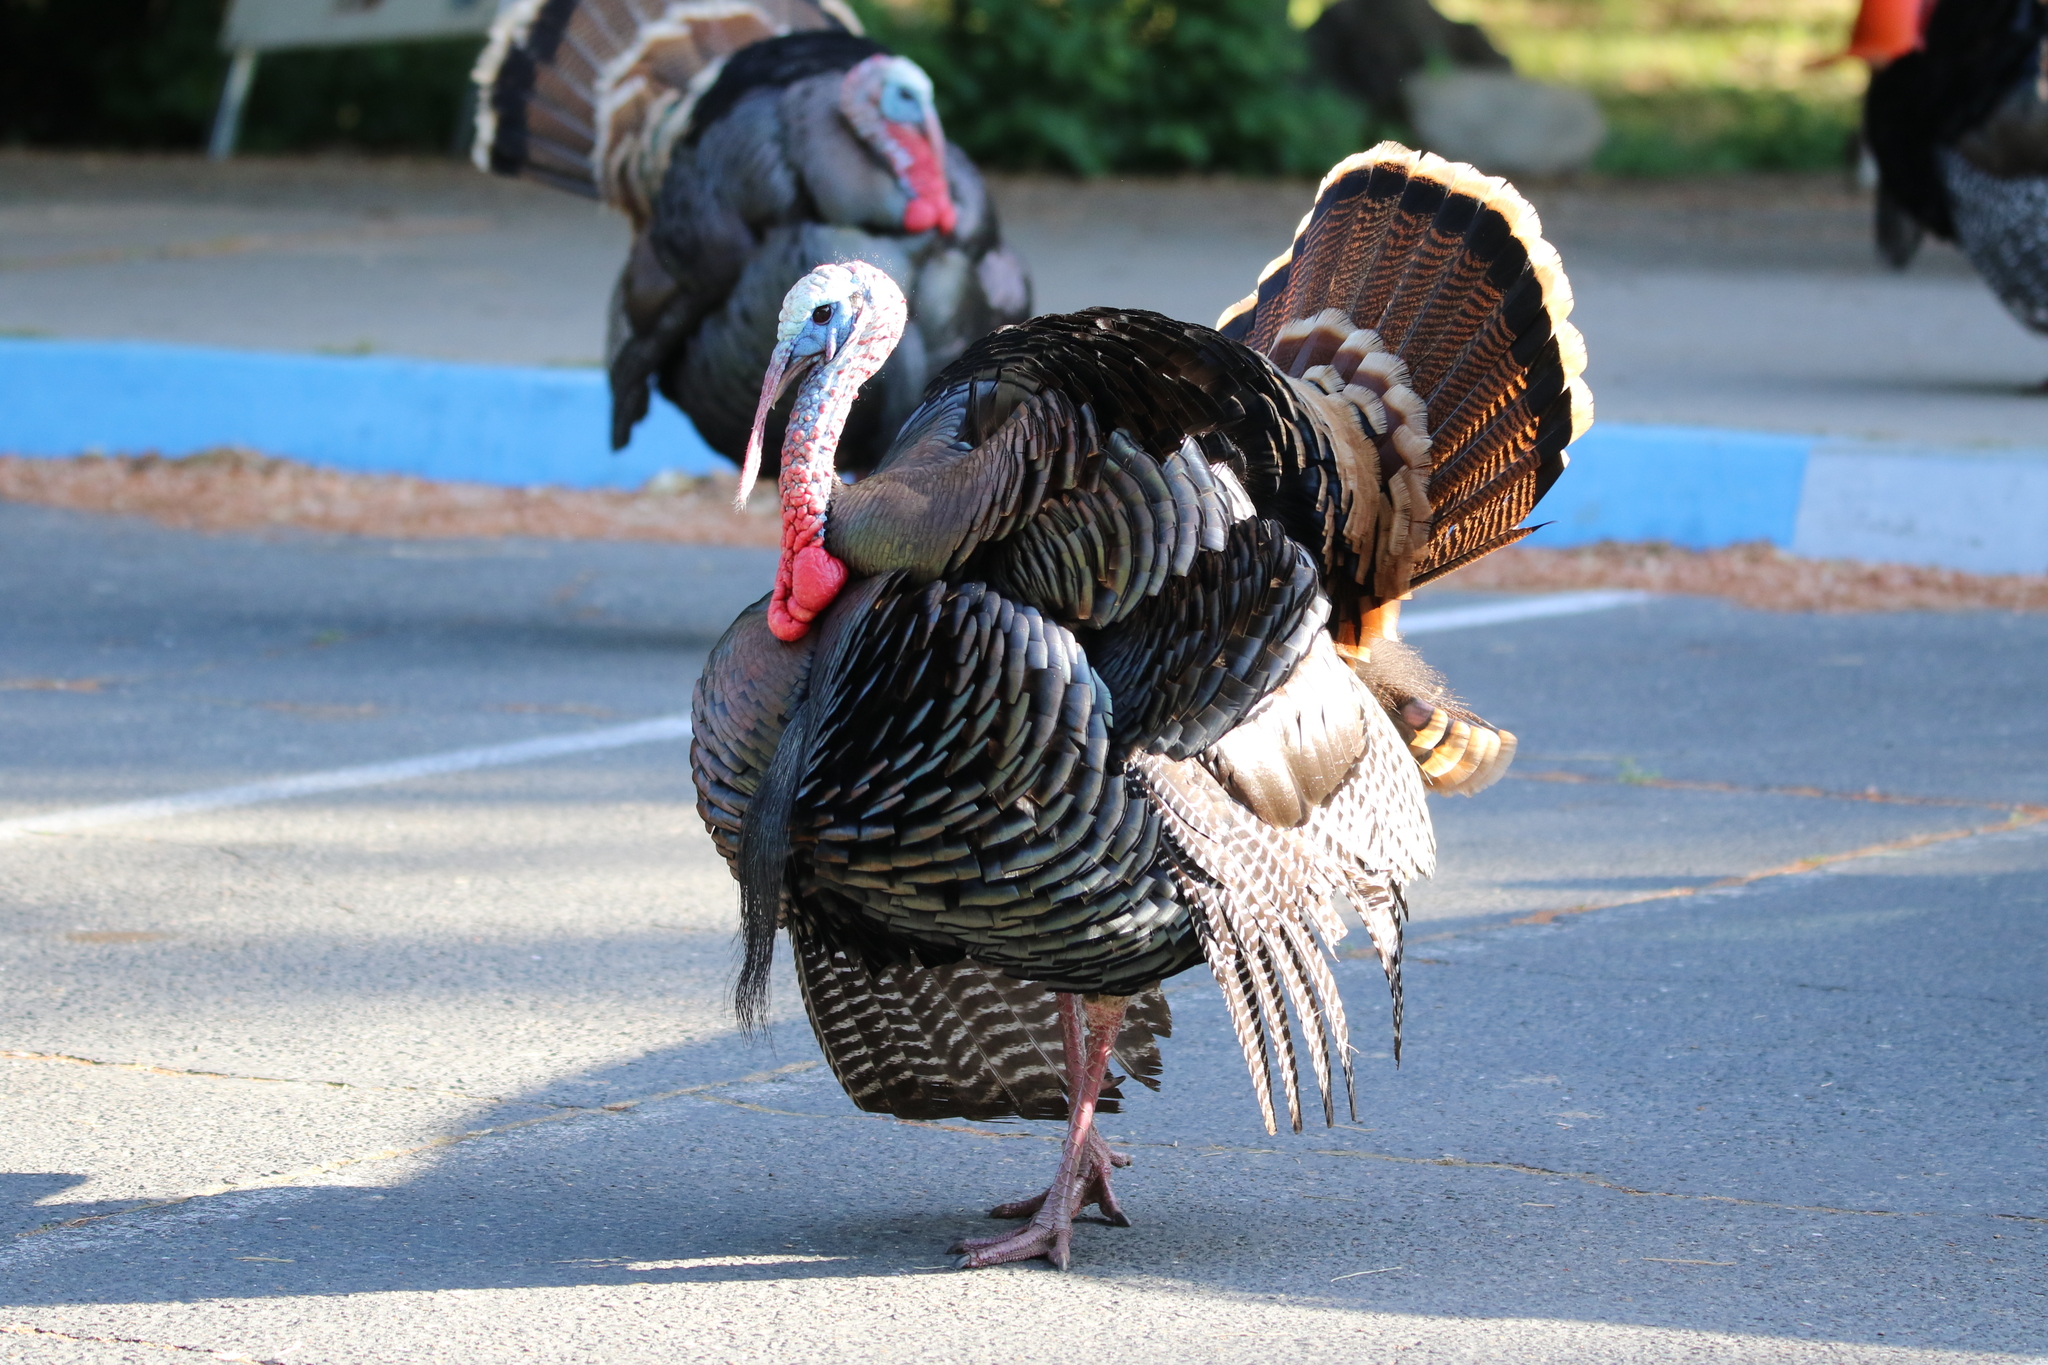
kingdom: Animalia
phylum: Chordata
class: Aves
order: Galliformes
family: Phasianidae
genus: Meleagris
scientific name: Meleagris gallopavo
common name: Wild turkey
